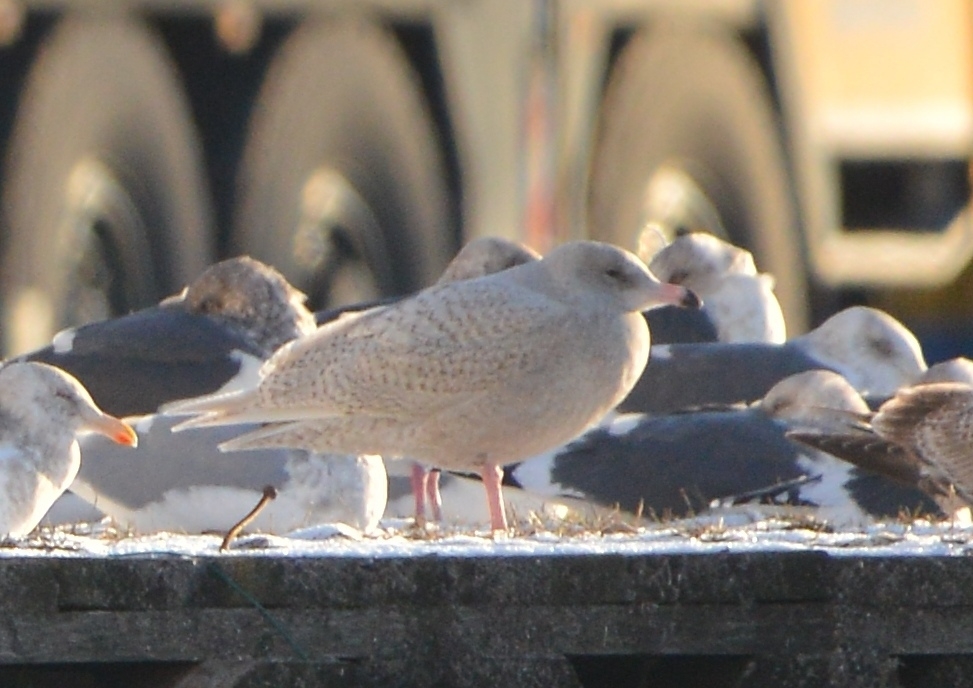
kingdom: Animalia
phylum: Chordata
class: Aves
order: Charadriiformes
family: Laridae
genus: Larus
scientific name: Larus hyperboreus
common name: Glaucous gull
